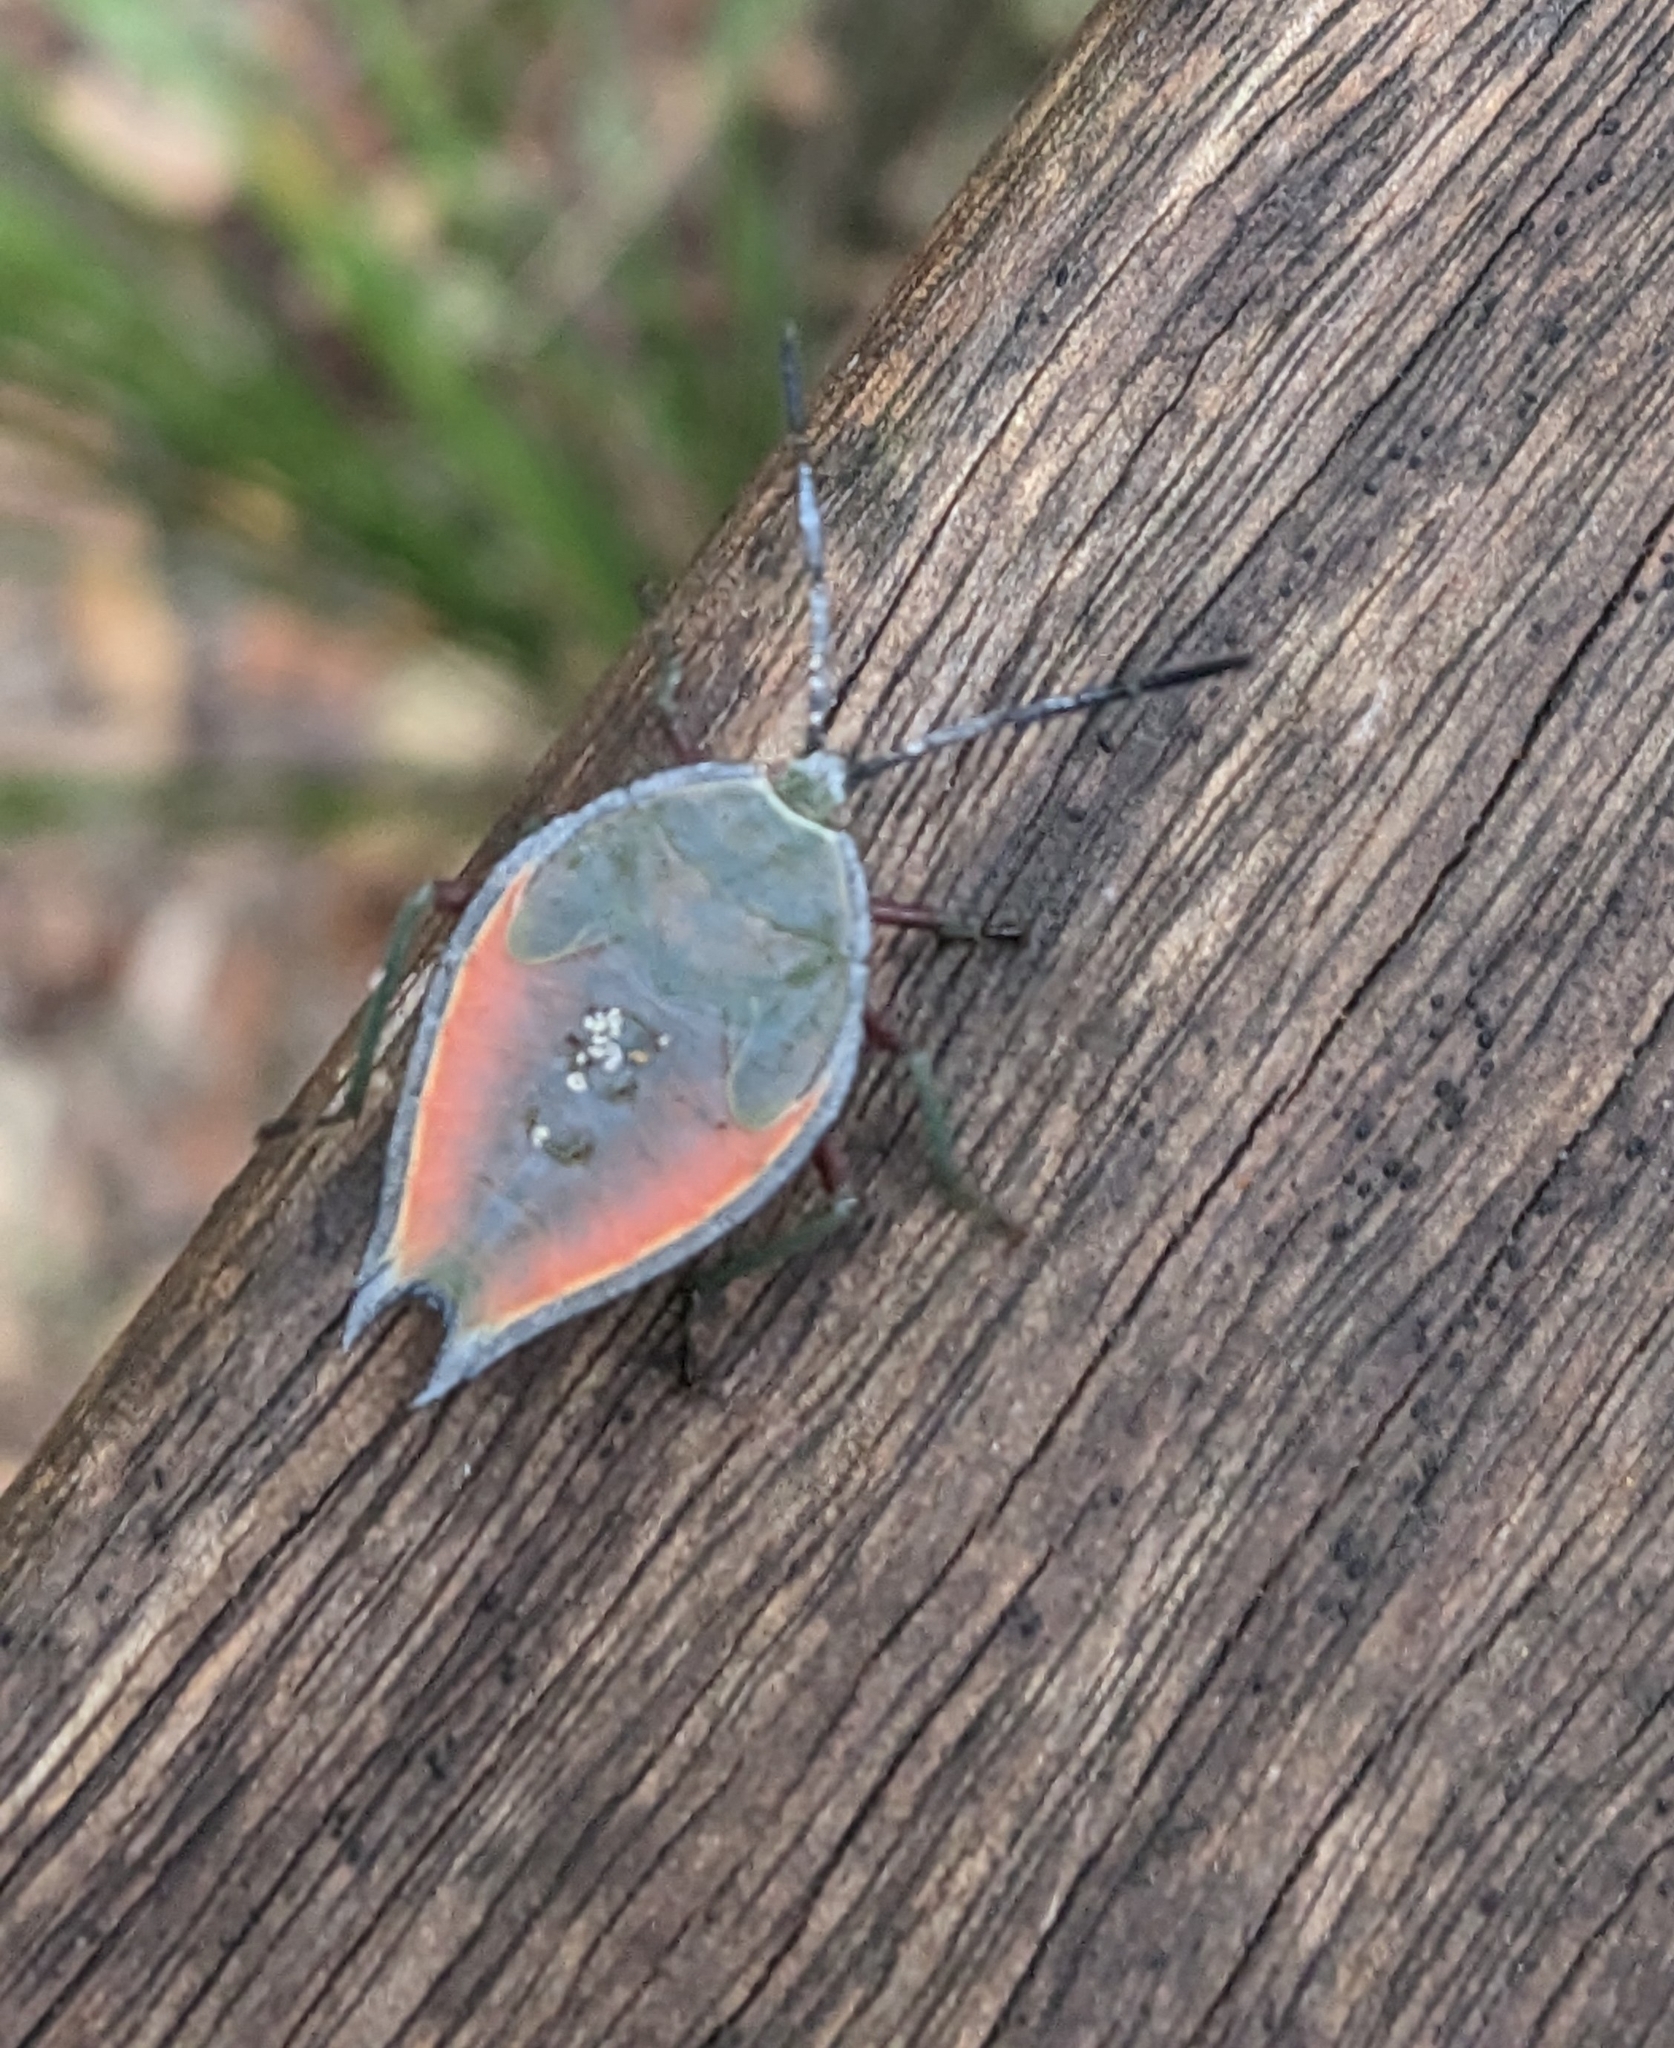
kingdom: Animalia
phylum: Arthropoda
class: Insecta
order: Hemiptera
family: Tessaratomidae
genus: Lyramorpha
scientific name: Lyramorpha rosea
